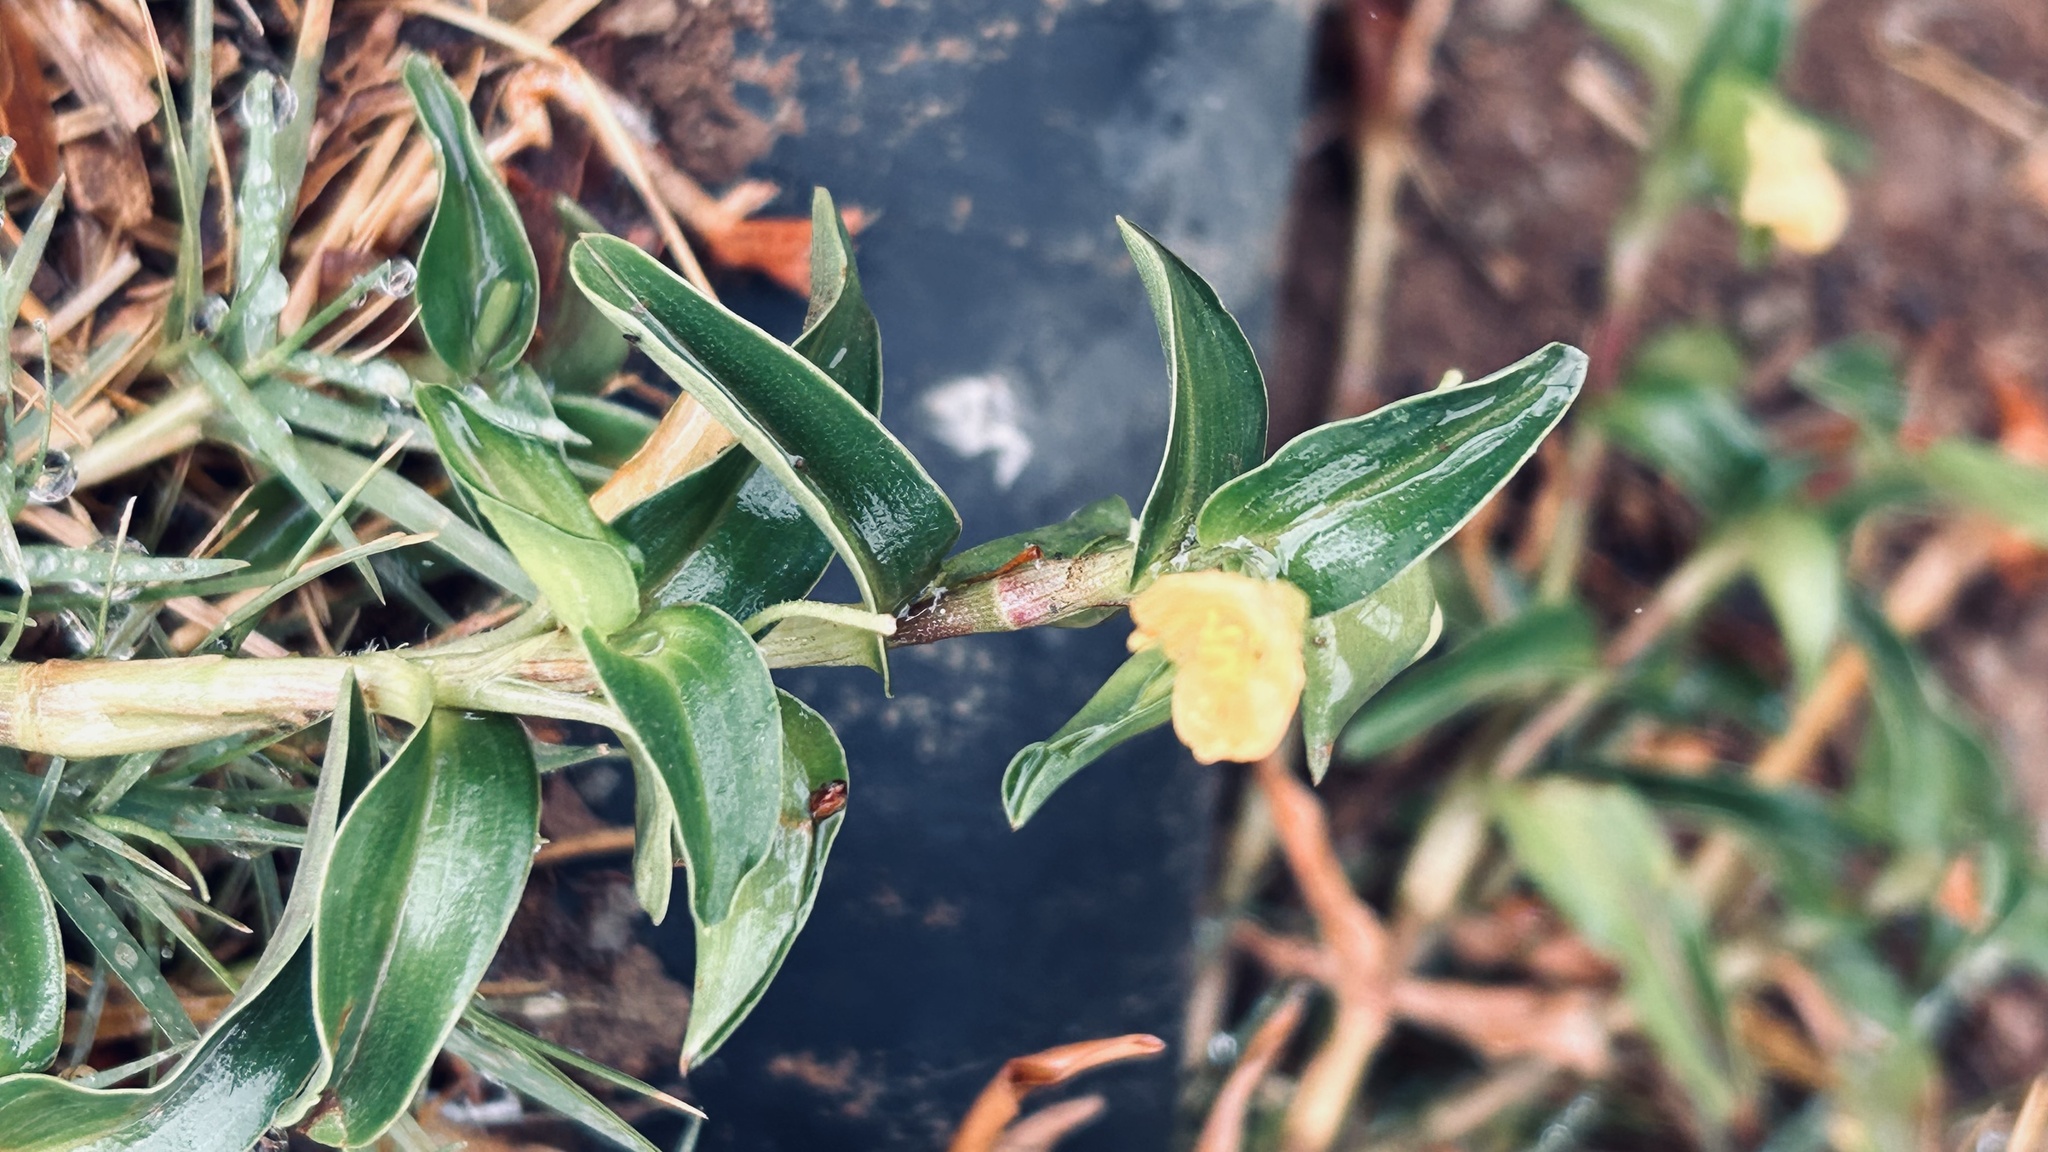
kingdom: Plantae
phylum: Tracheophyta
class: Liliopsida
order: Commelinales
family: Commelinaceae
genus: Commelina
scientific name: Commelina africana
